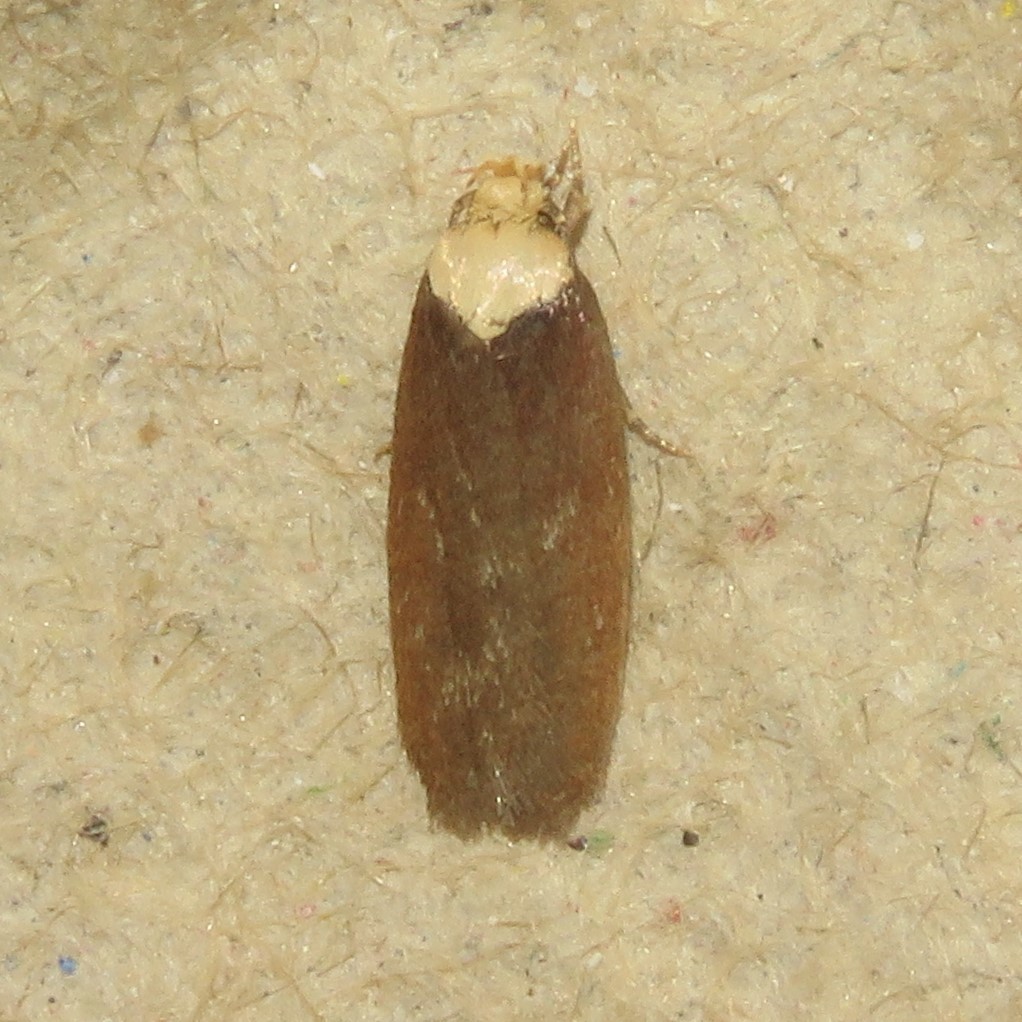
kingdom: Animalia
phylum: Arthropoda
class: Insecta
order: Lepidoptera
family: Depressariidae
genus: Depressaria
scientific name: Depressaria depressana
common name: Lost flat-body
